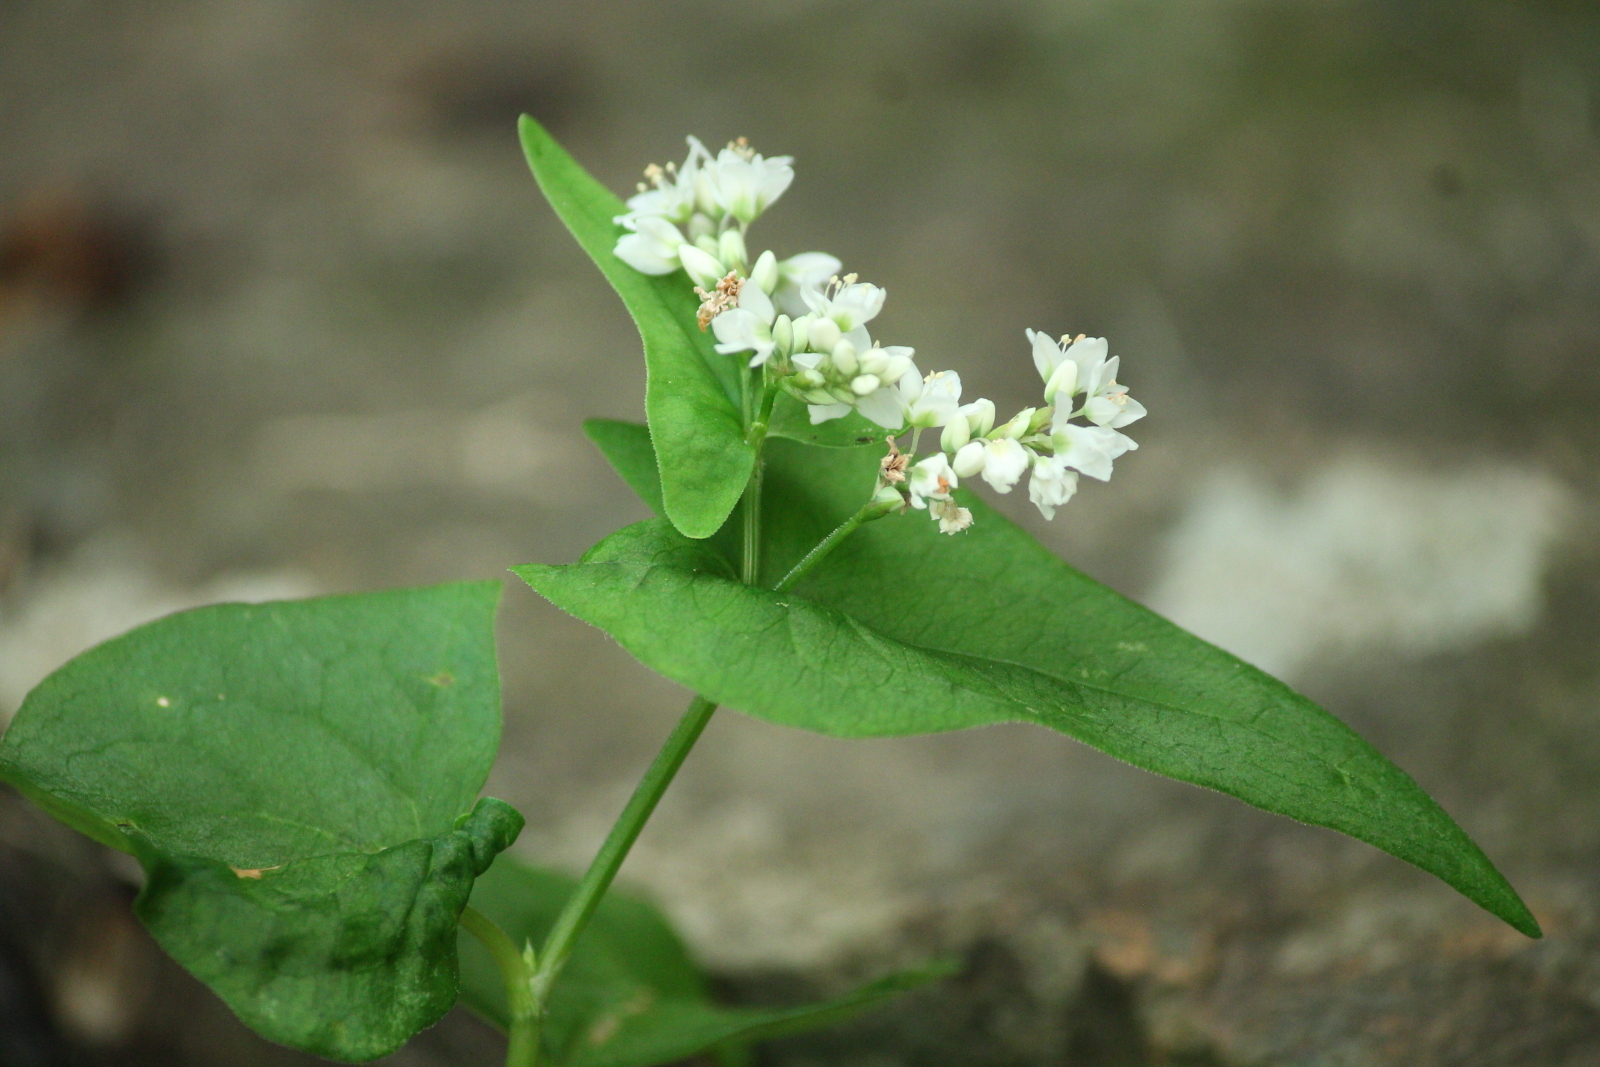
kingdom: Plantae
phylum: Tracheophyta
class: Magnoliopsida
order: Caryophyllales
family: Polygonaceae
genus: Fagopyrum
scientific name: Fagopyrum esculentum
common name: Buckwheat
